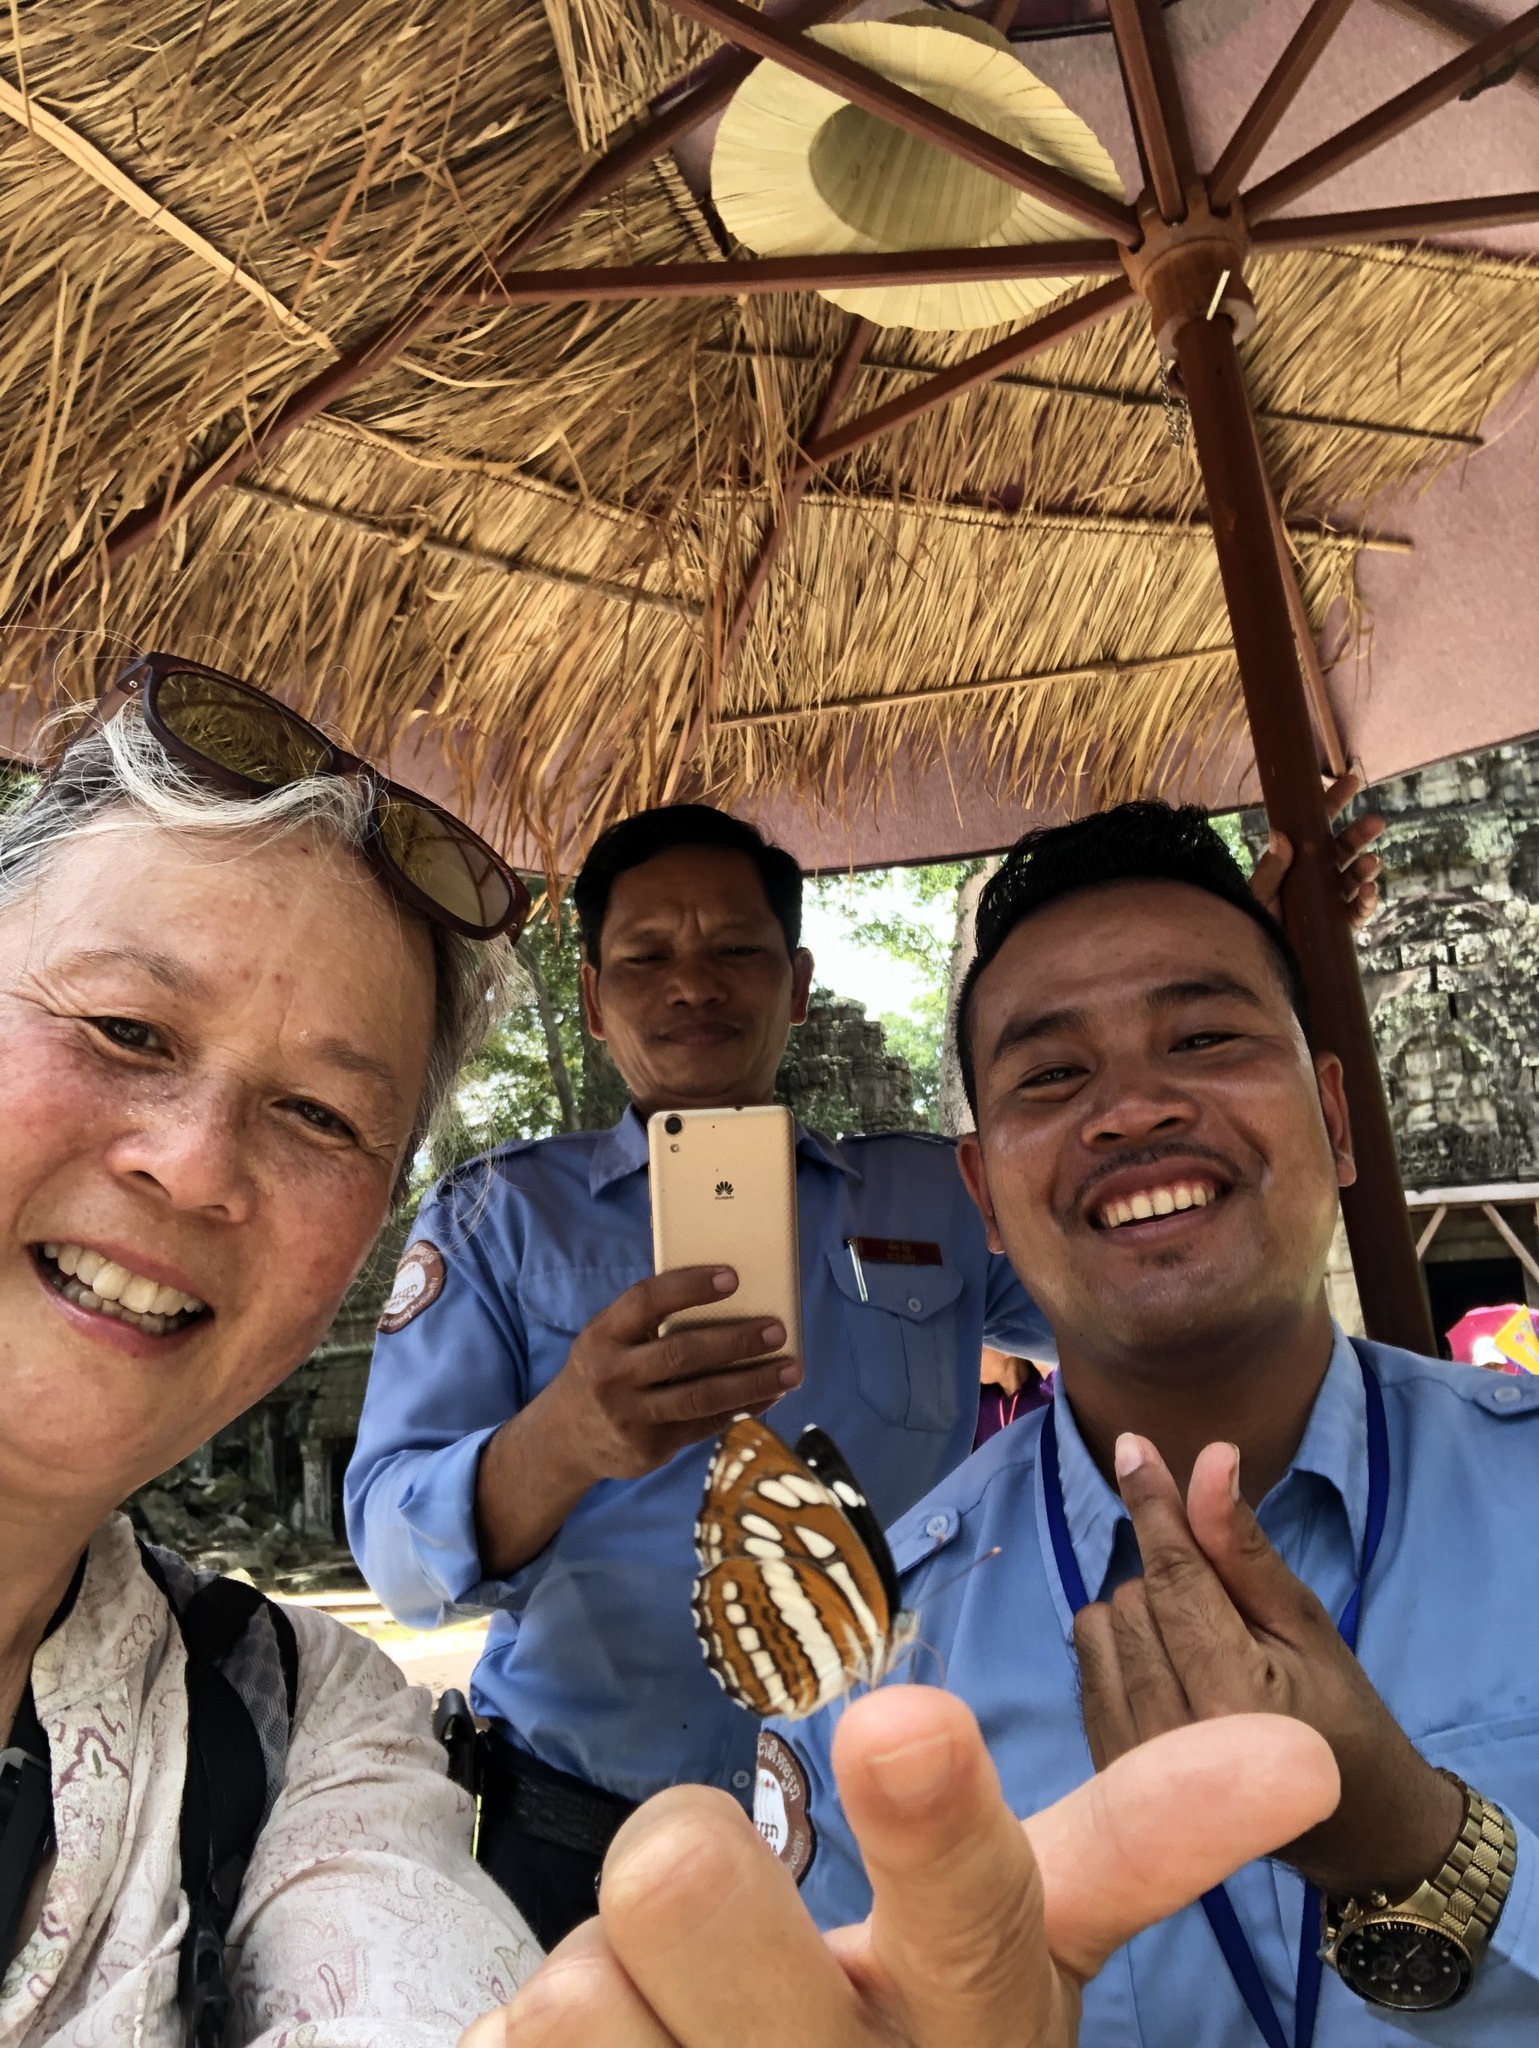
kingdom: Animalia
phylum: Arthropoda
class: Insecta
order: Lepidoptera
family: Nymphalidae
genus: Neptis
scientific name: Neptis hylas
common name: Common sailer
